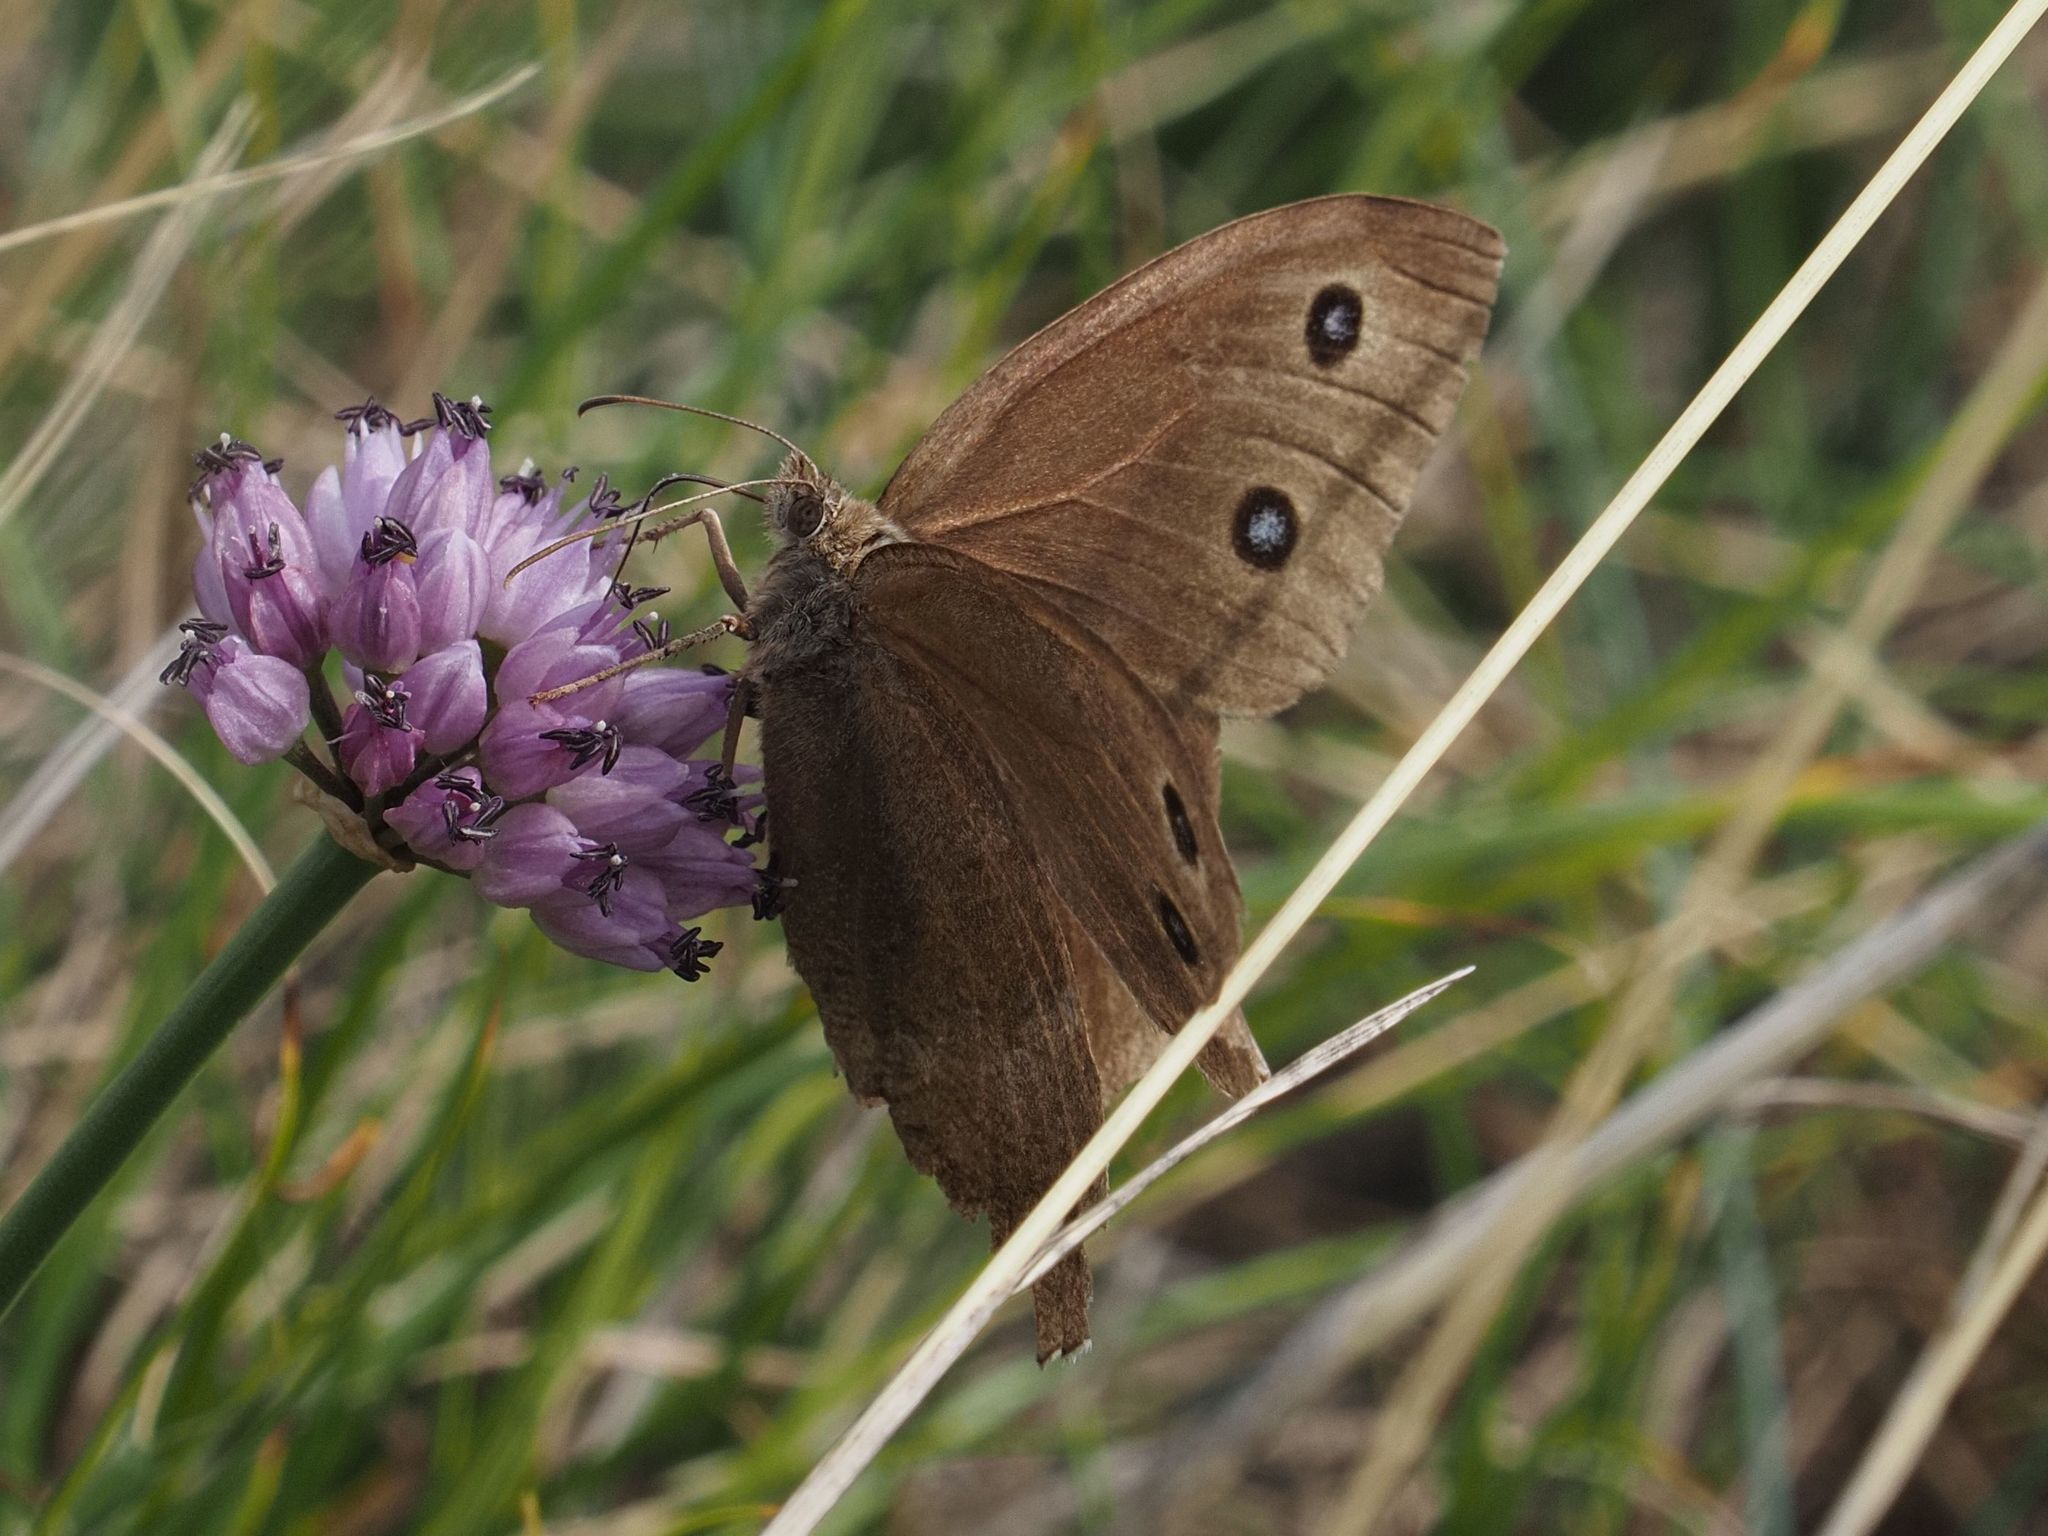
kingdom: Animalia
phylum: Arthropoda
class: Insecta
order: Lepidoptera
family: Nymphalidae
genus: Minois
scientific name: Minois dryas
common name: Dryad
